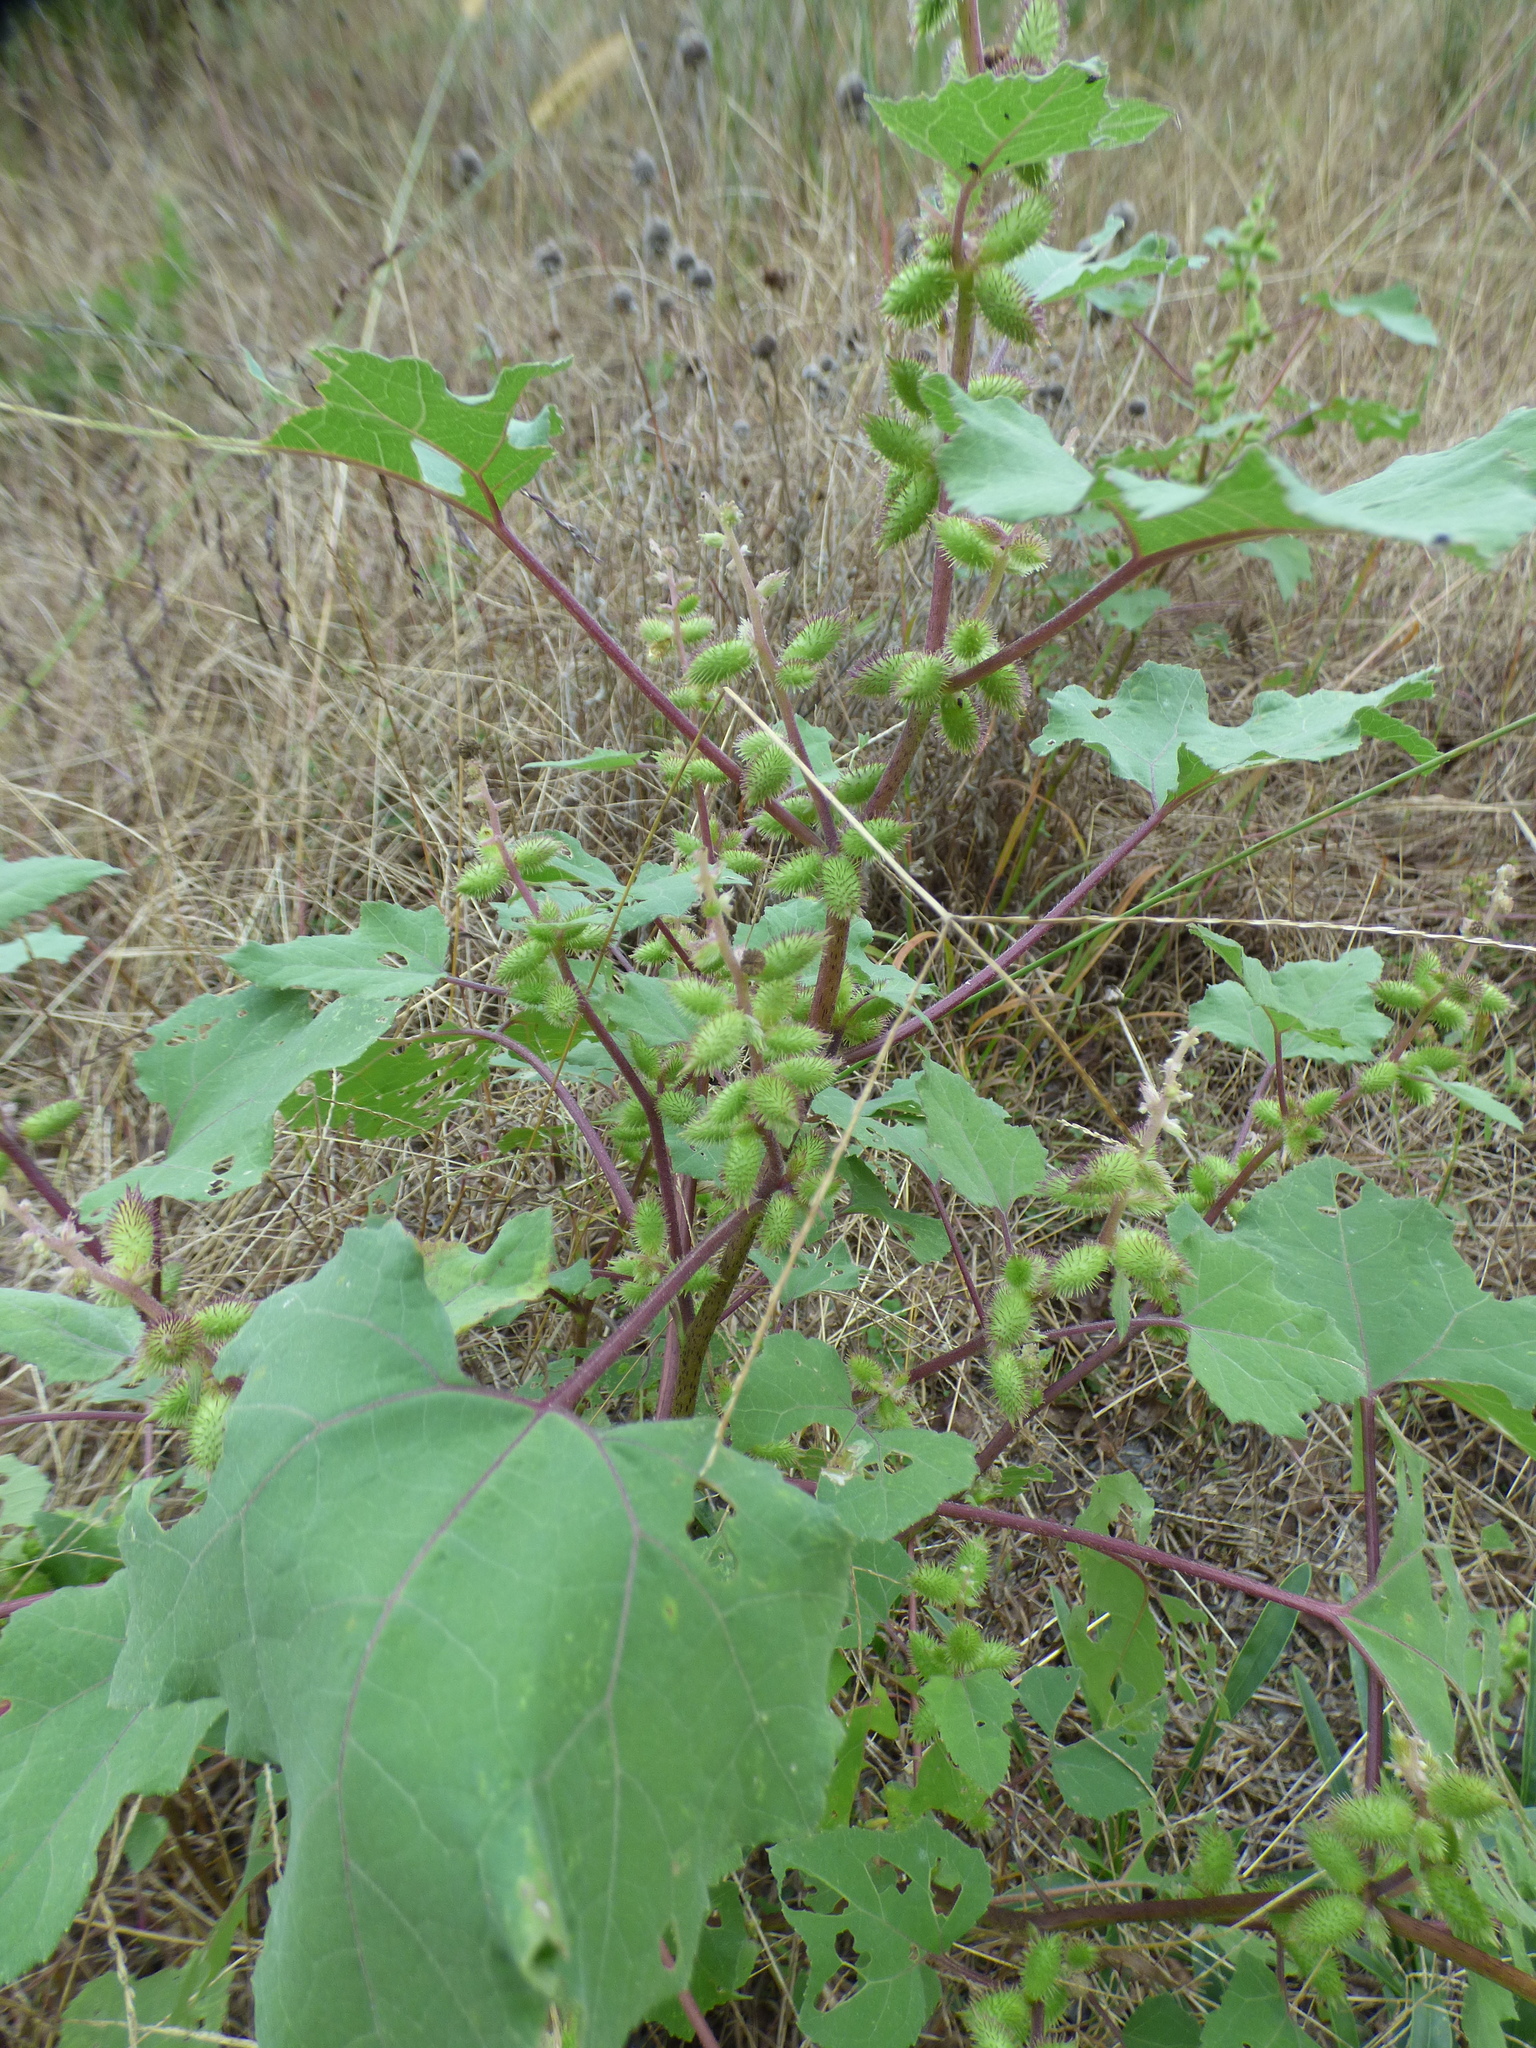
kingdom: Plantae
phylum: Tracheophyta
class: Magnoliopsida
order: Asterales
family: Asteraceae
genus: Xanthium
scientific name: Xanthium strumarium
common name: Rough cocklebur
